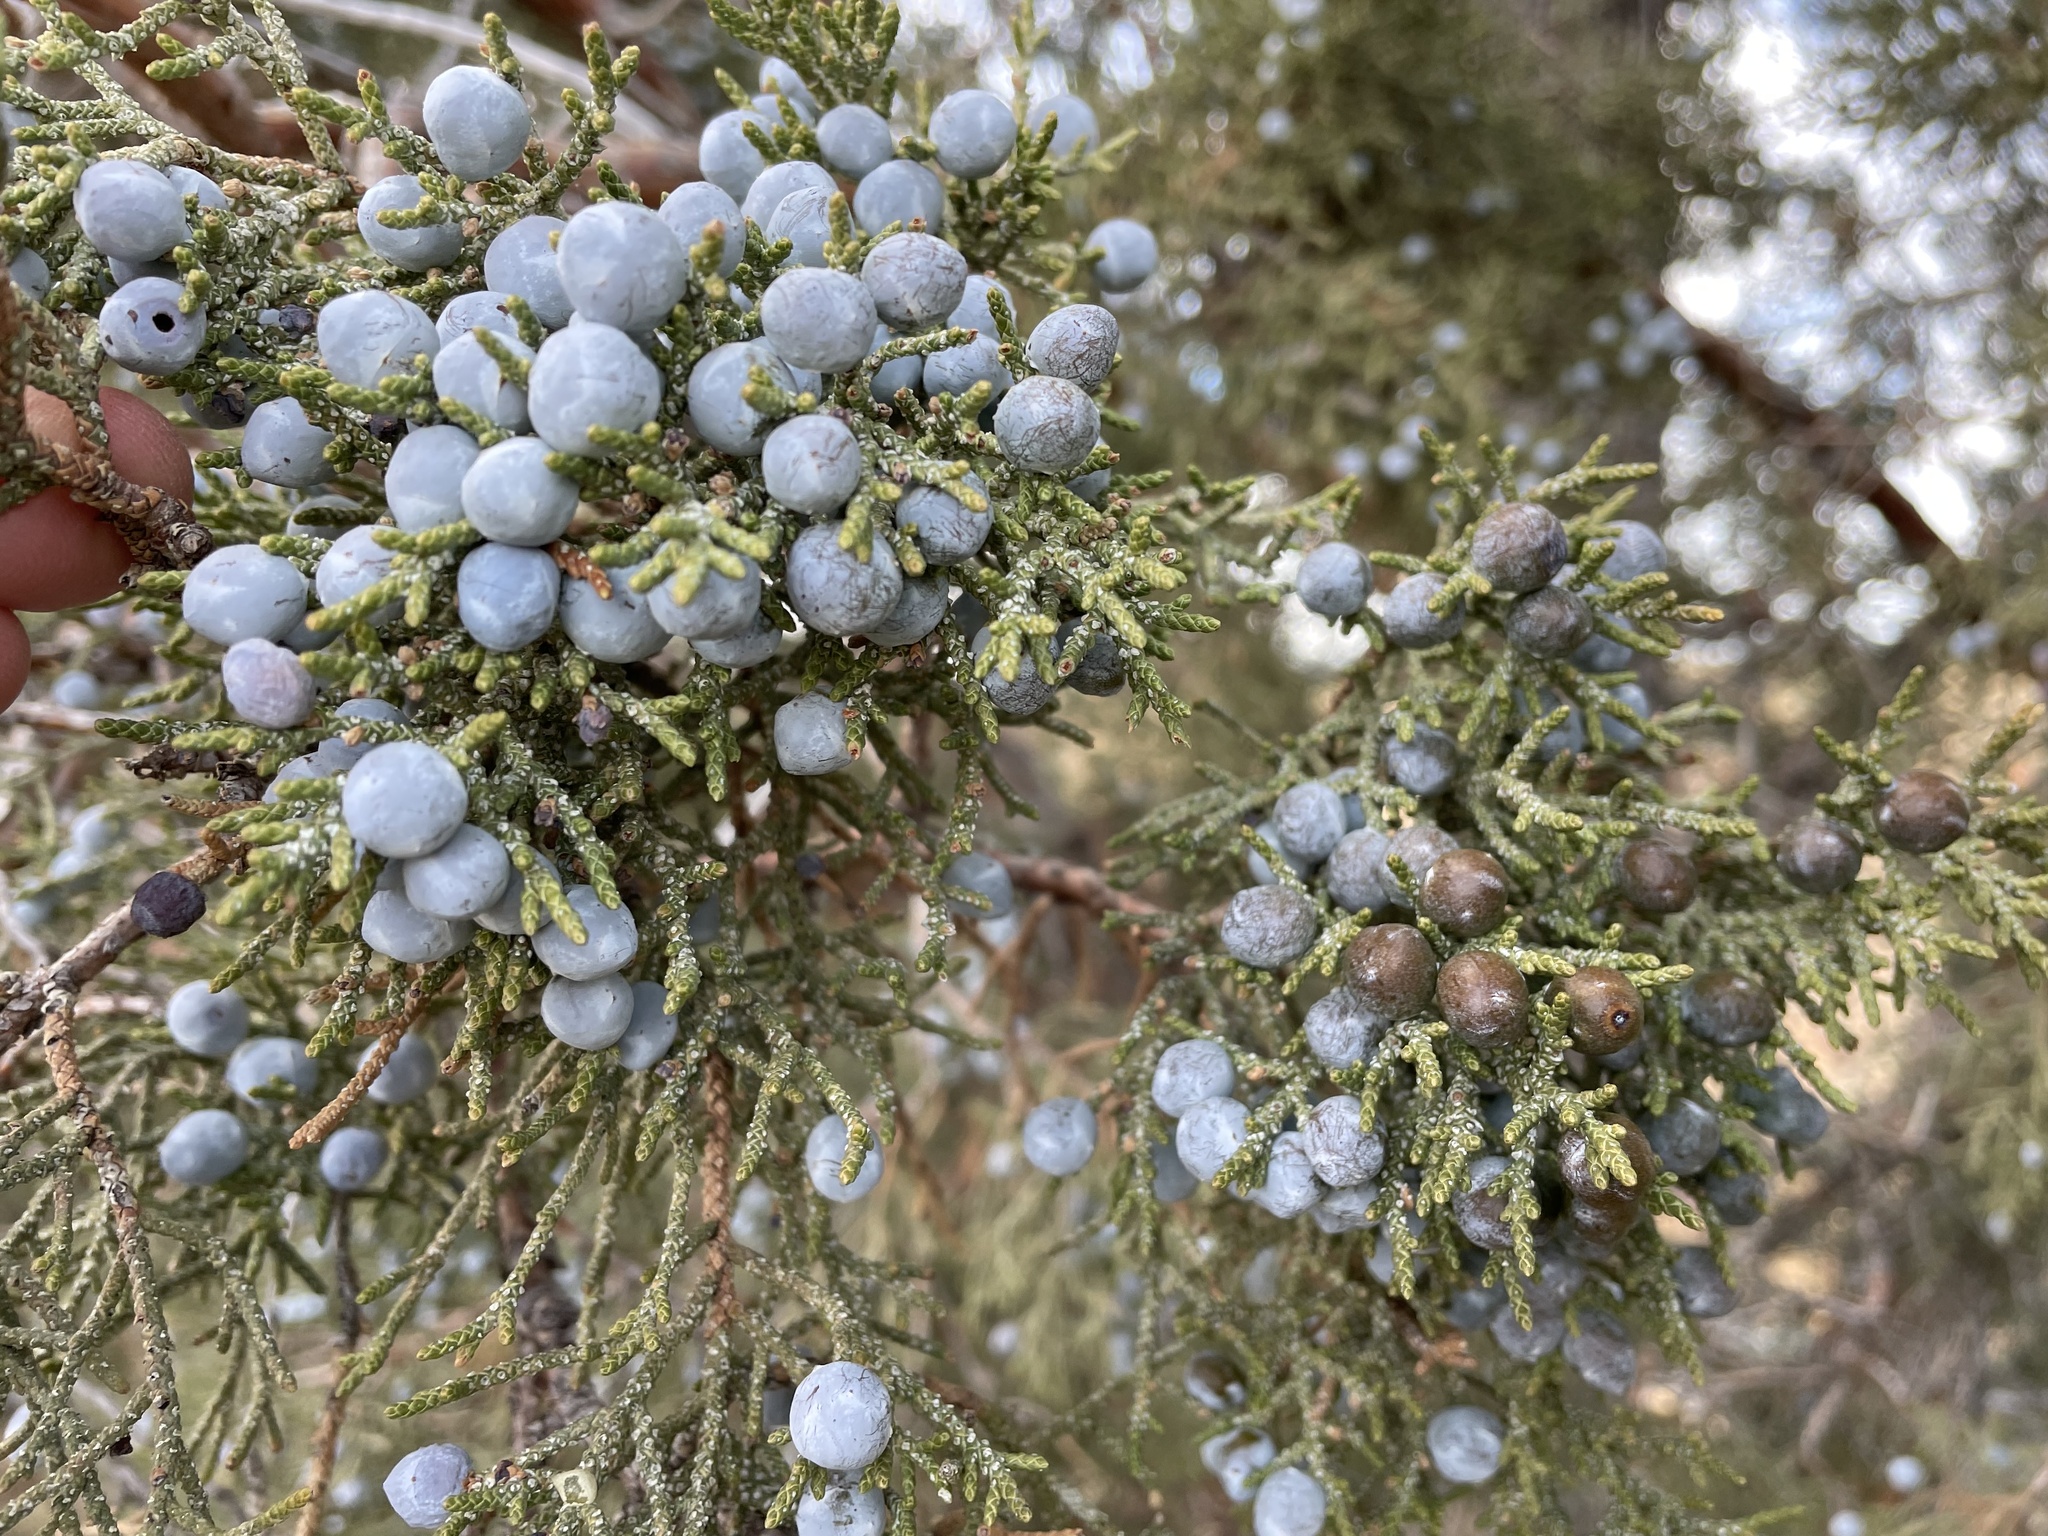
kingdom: Plantae
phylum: Tracheophyta
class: Pinopsida
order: Pinales
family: Cupressaceae
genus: Juniperus
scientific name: Juniperus occidentalis
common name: Western juniper
